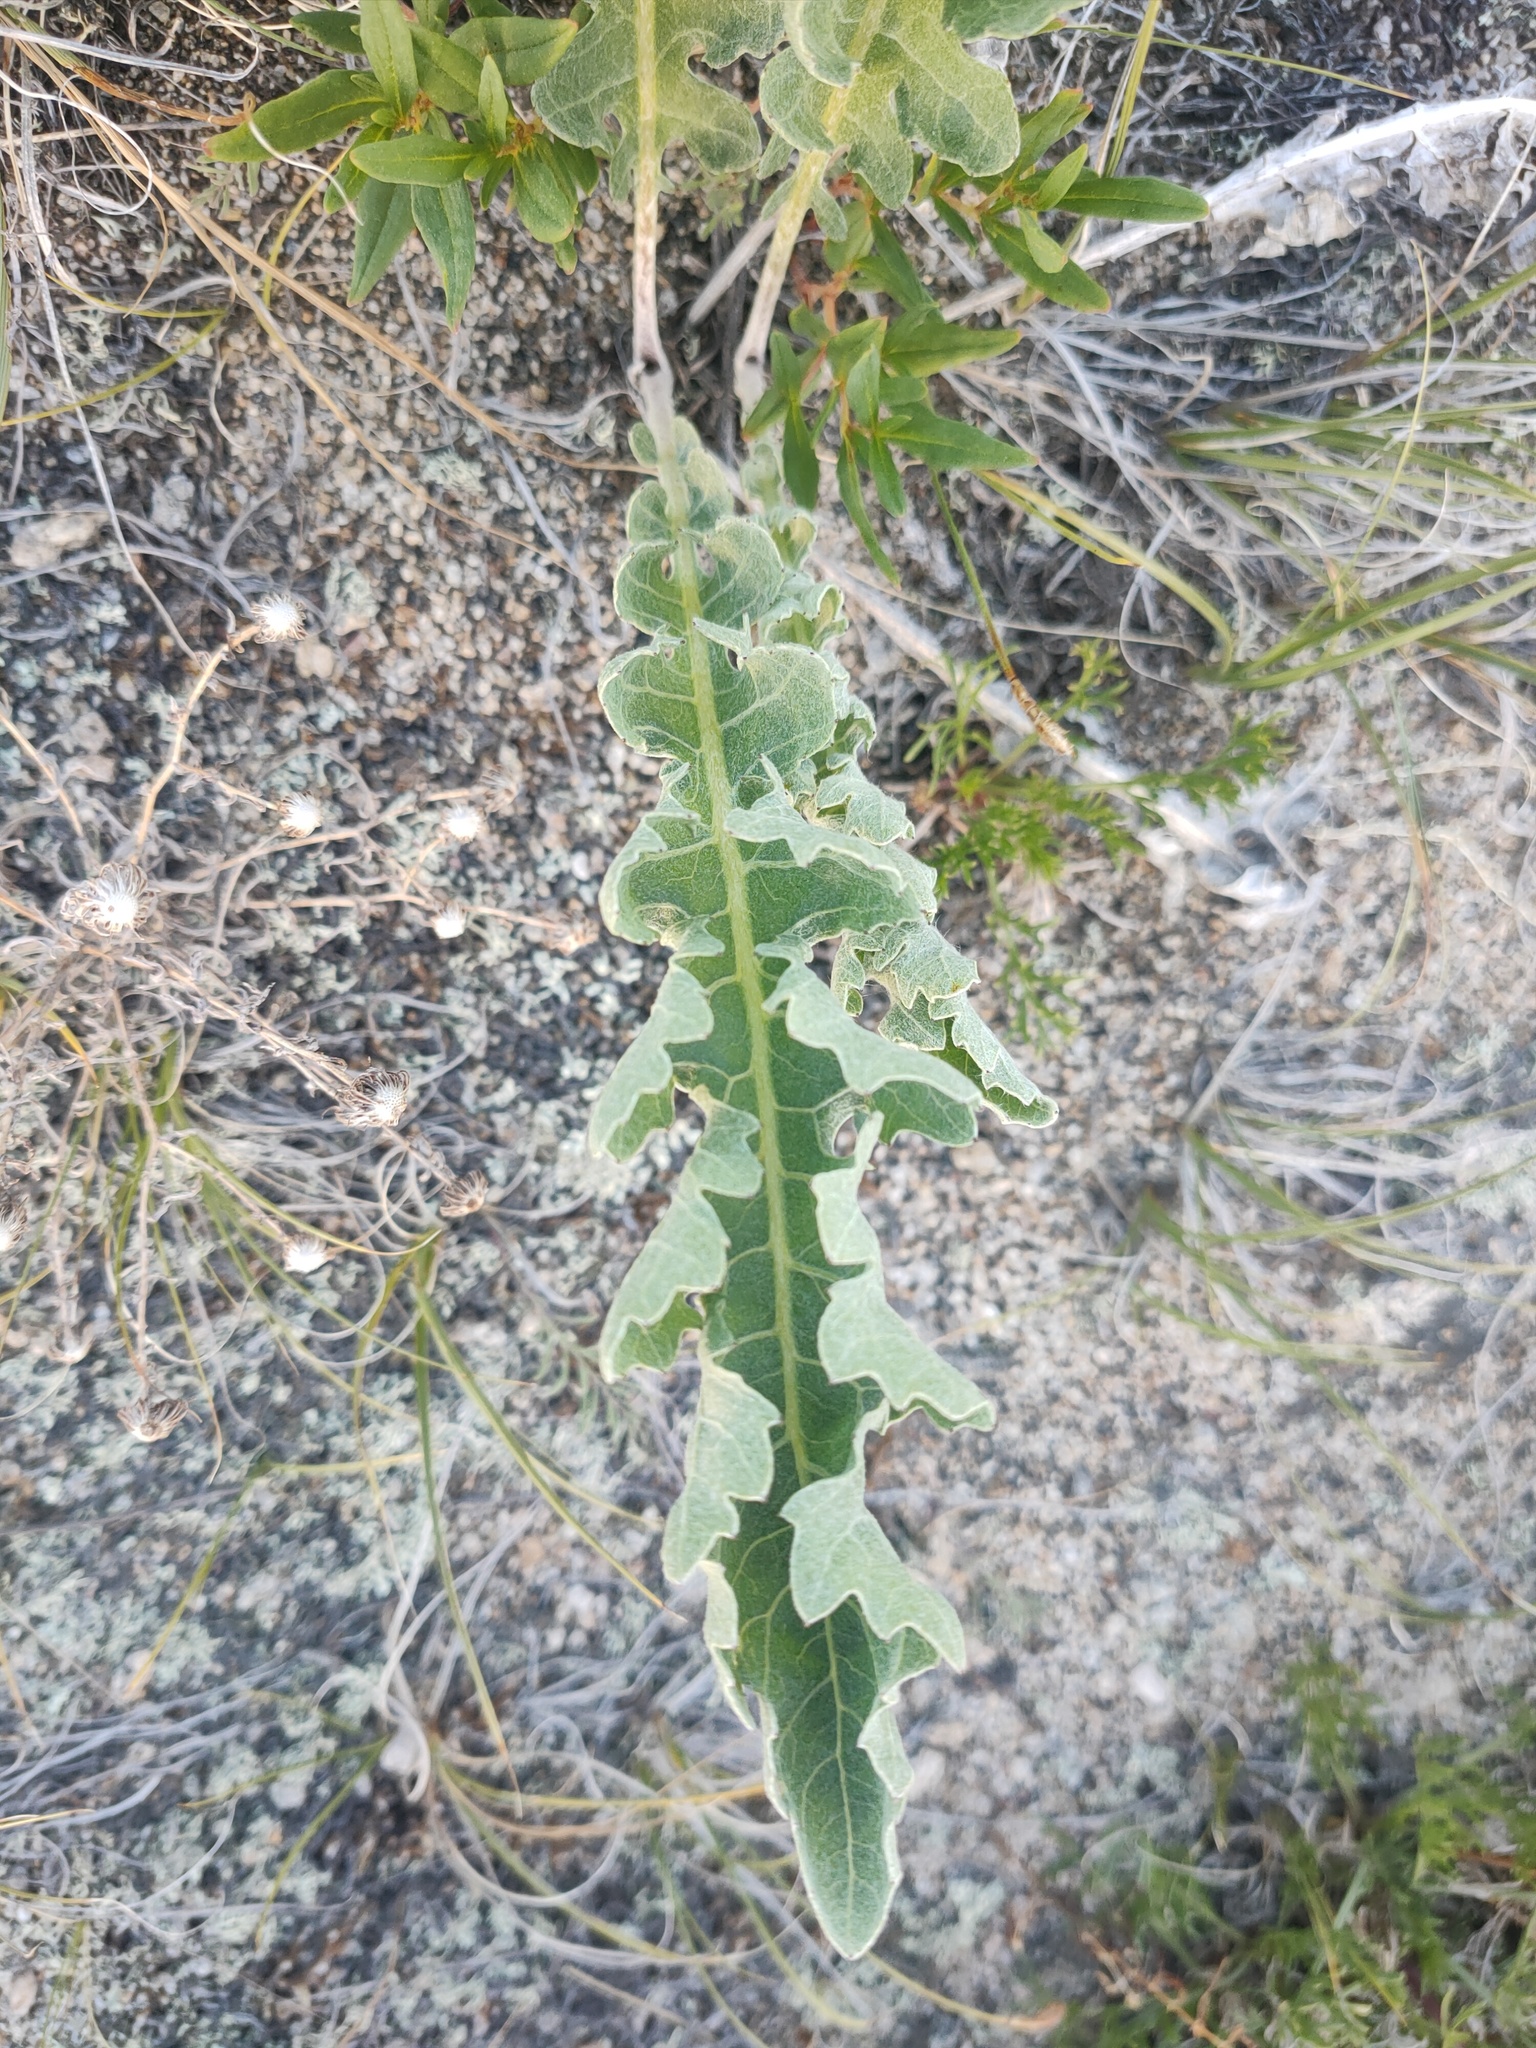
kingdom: Plantae
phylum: Tracheophyta
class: Magnoliopsida
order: Asterales
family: Asteraceae
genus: Leuzea
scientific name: Leuzea uniflora
